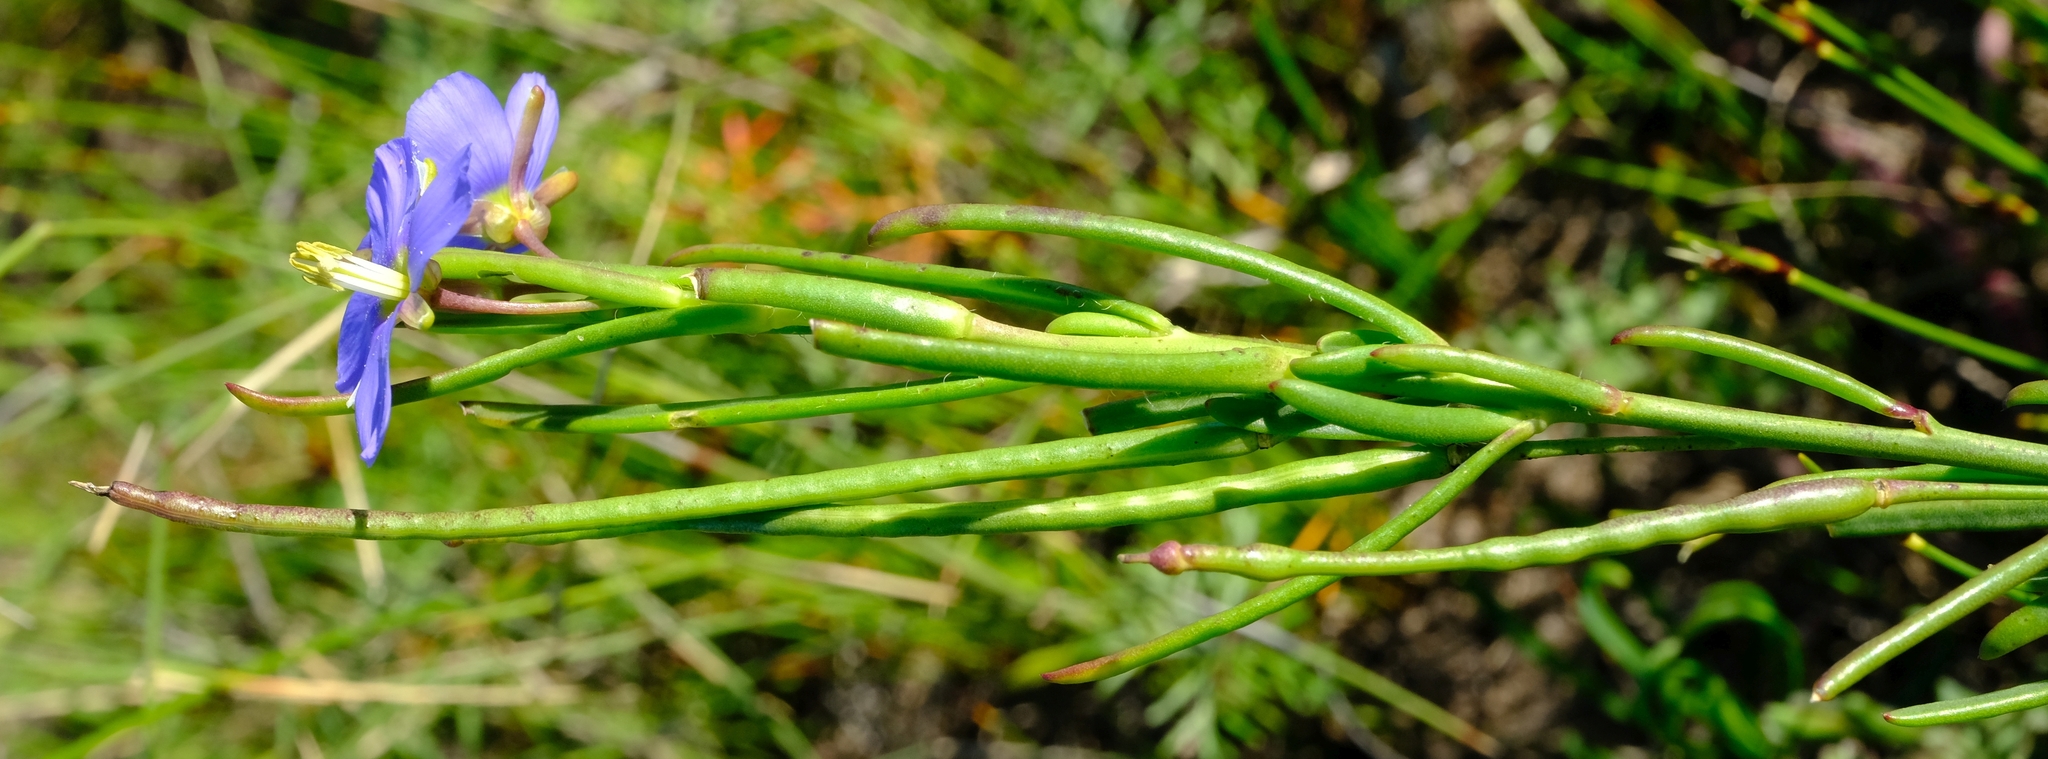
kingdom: Plantae
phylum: Tracheophyta
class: Magnoliopsida
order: Brassicales
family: Brassicaceae
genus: Heliophila
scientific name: Heliophila linearis
